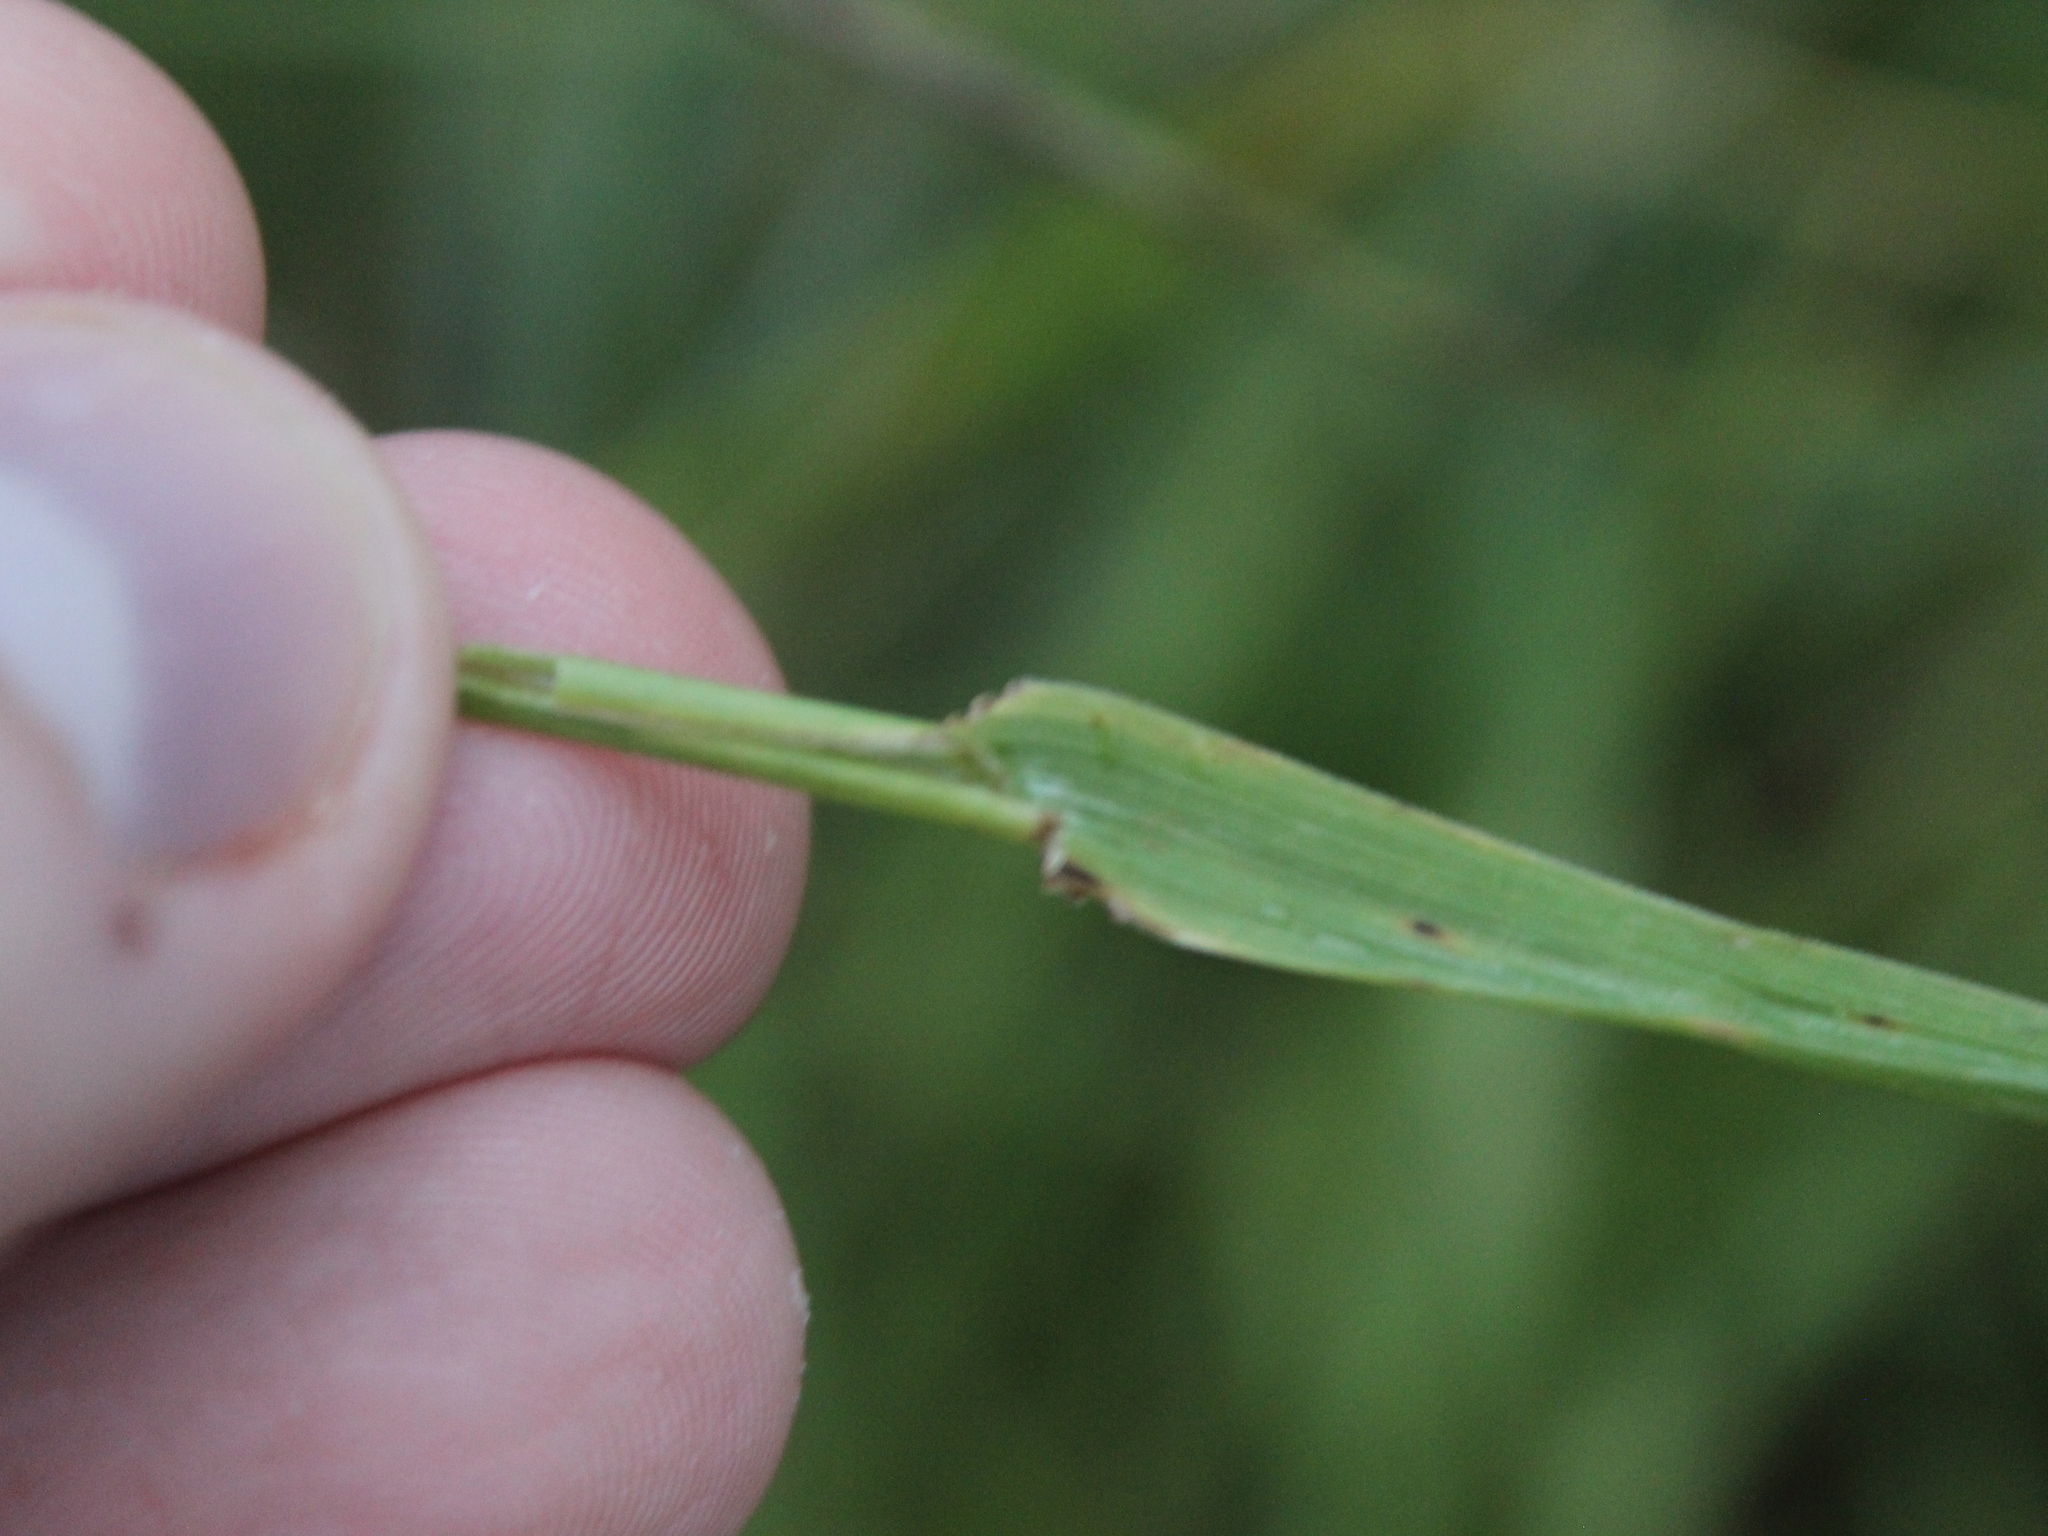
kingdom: Plantae
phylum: Tracheophyta
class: Liliopsida
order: Poales
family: Poaceae
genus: Lolium
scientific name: Lolium arundinaceum
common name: Reed fescue
